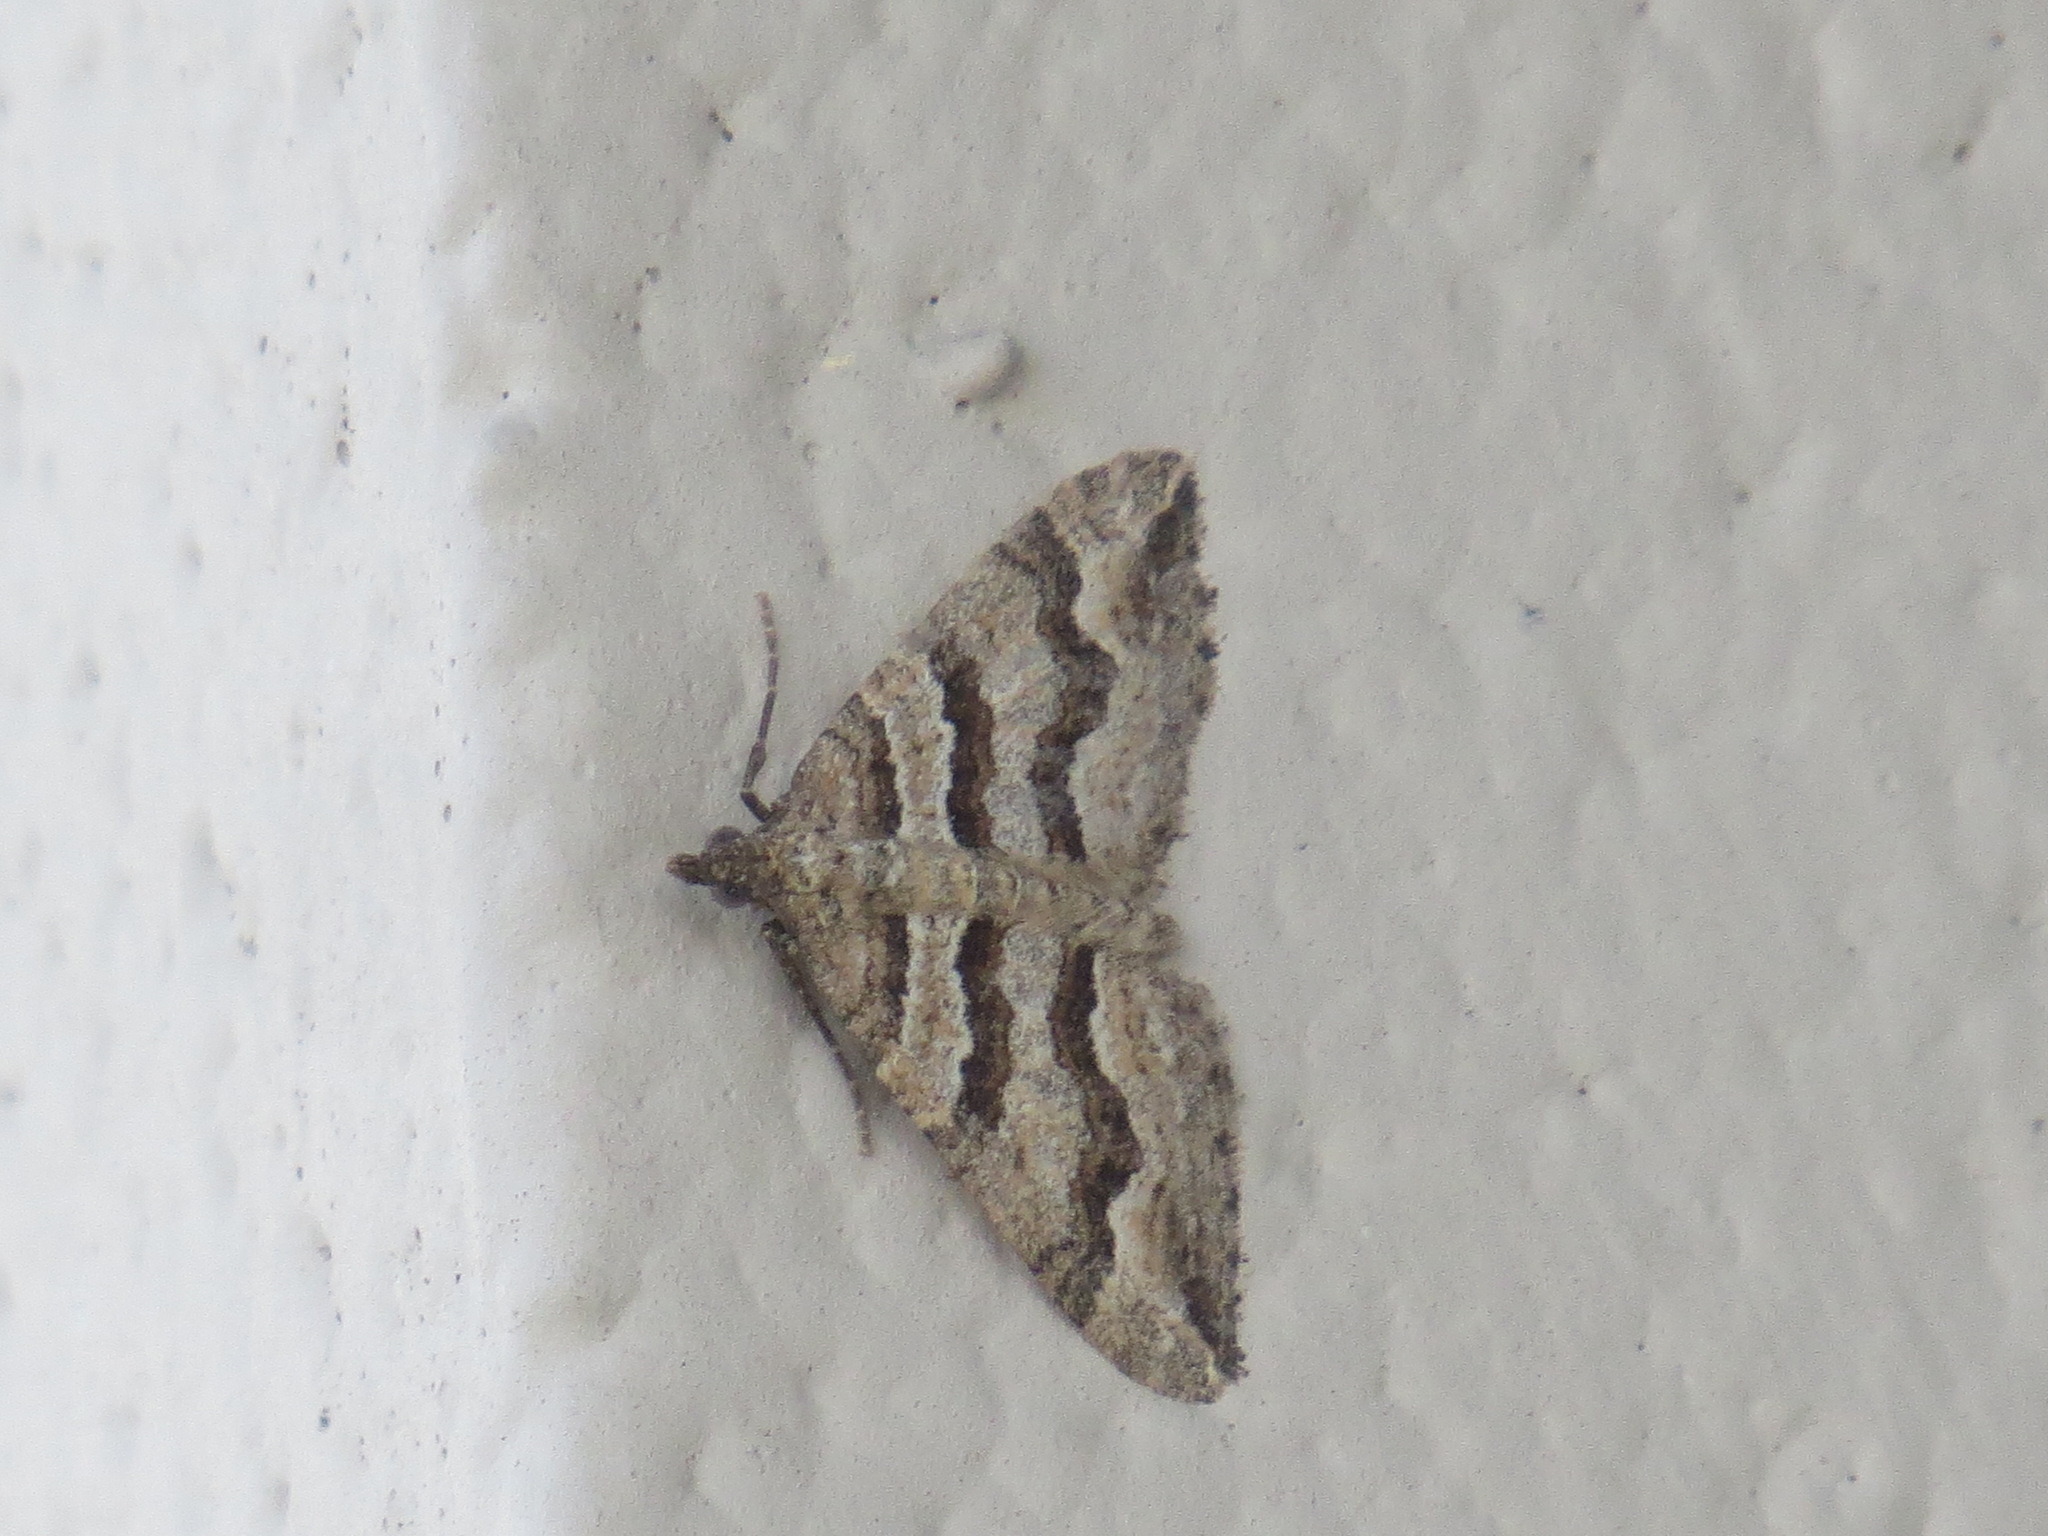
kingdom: Animalia
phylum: Arthropoda
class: Insecta
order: Lepidoptera
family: Geometridae
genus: Perizoma
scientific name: Perizoma epictata
